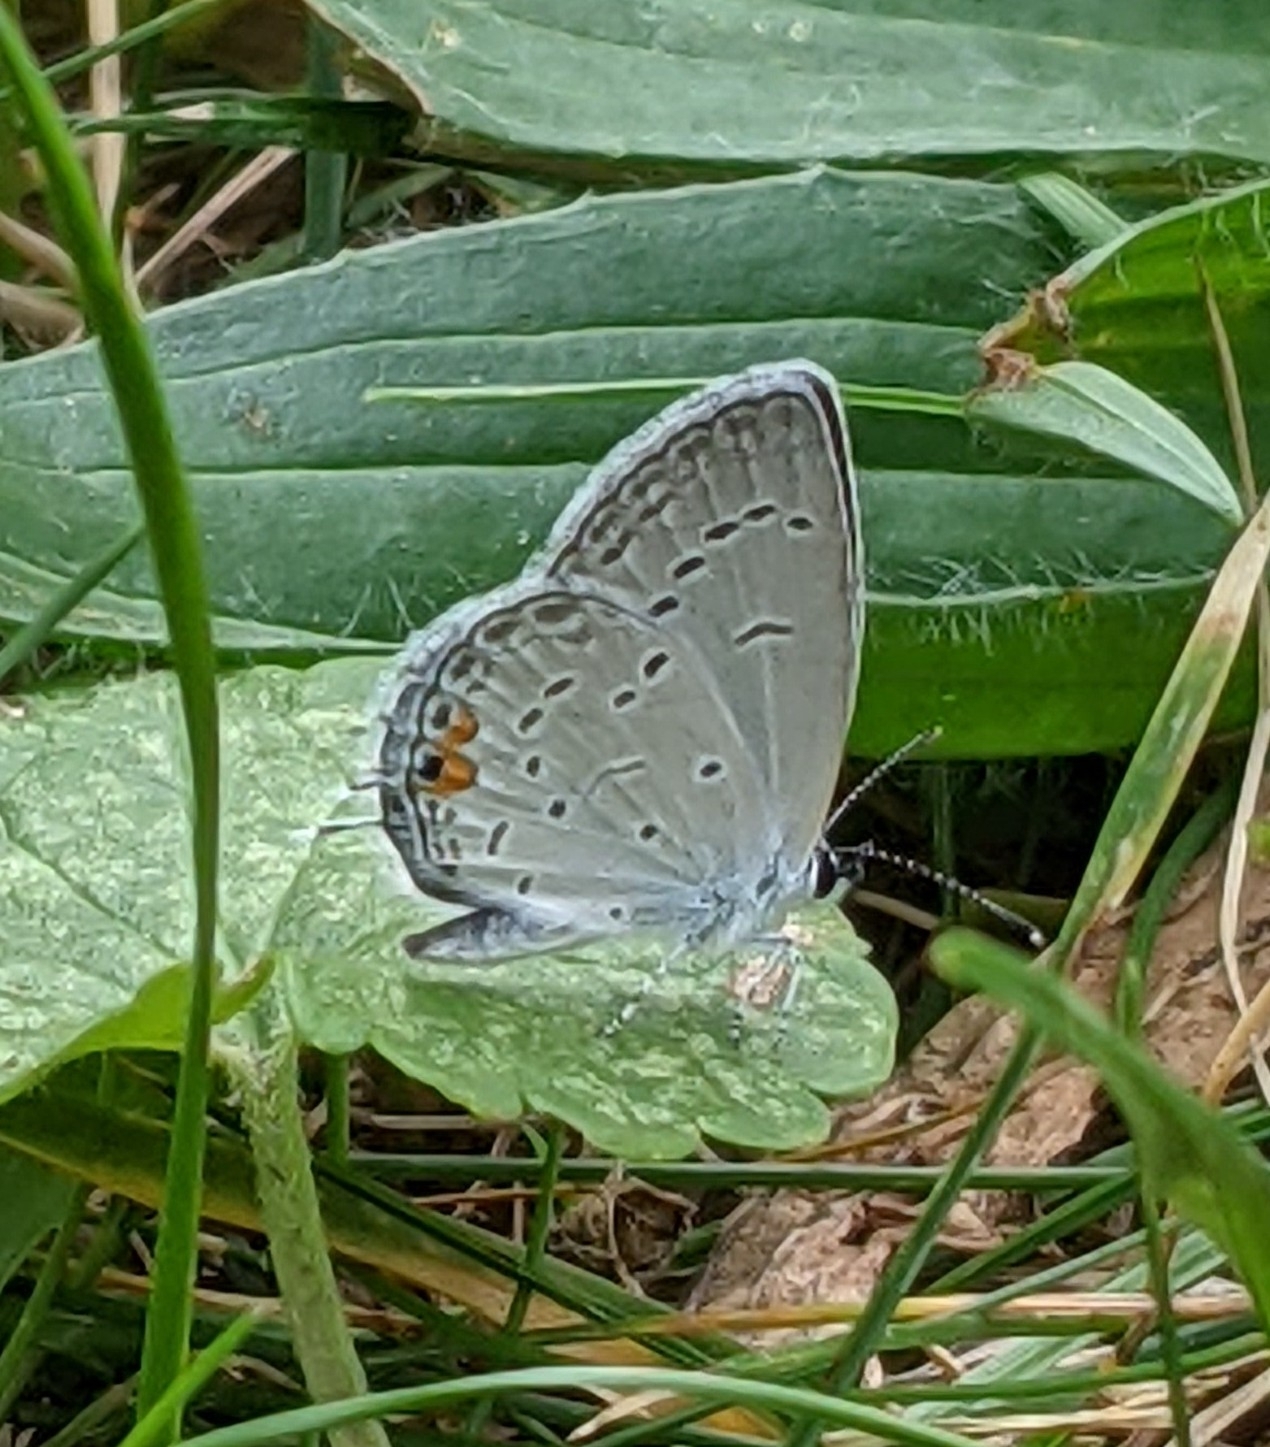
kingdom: Animalia
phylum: Arthropoda
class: Insecta
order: Lepidoptera
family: Lycaenidae
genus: Elkalyce
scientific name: Elkalyce comyntas
